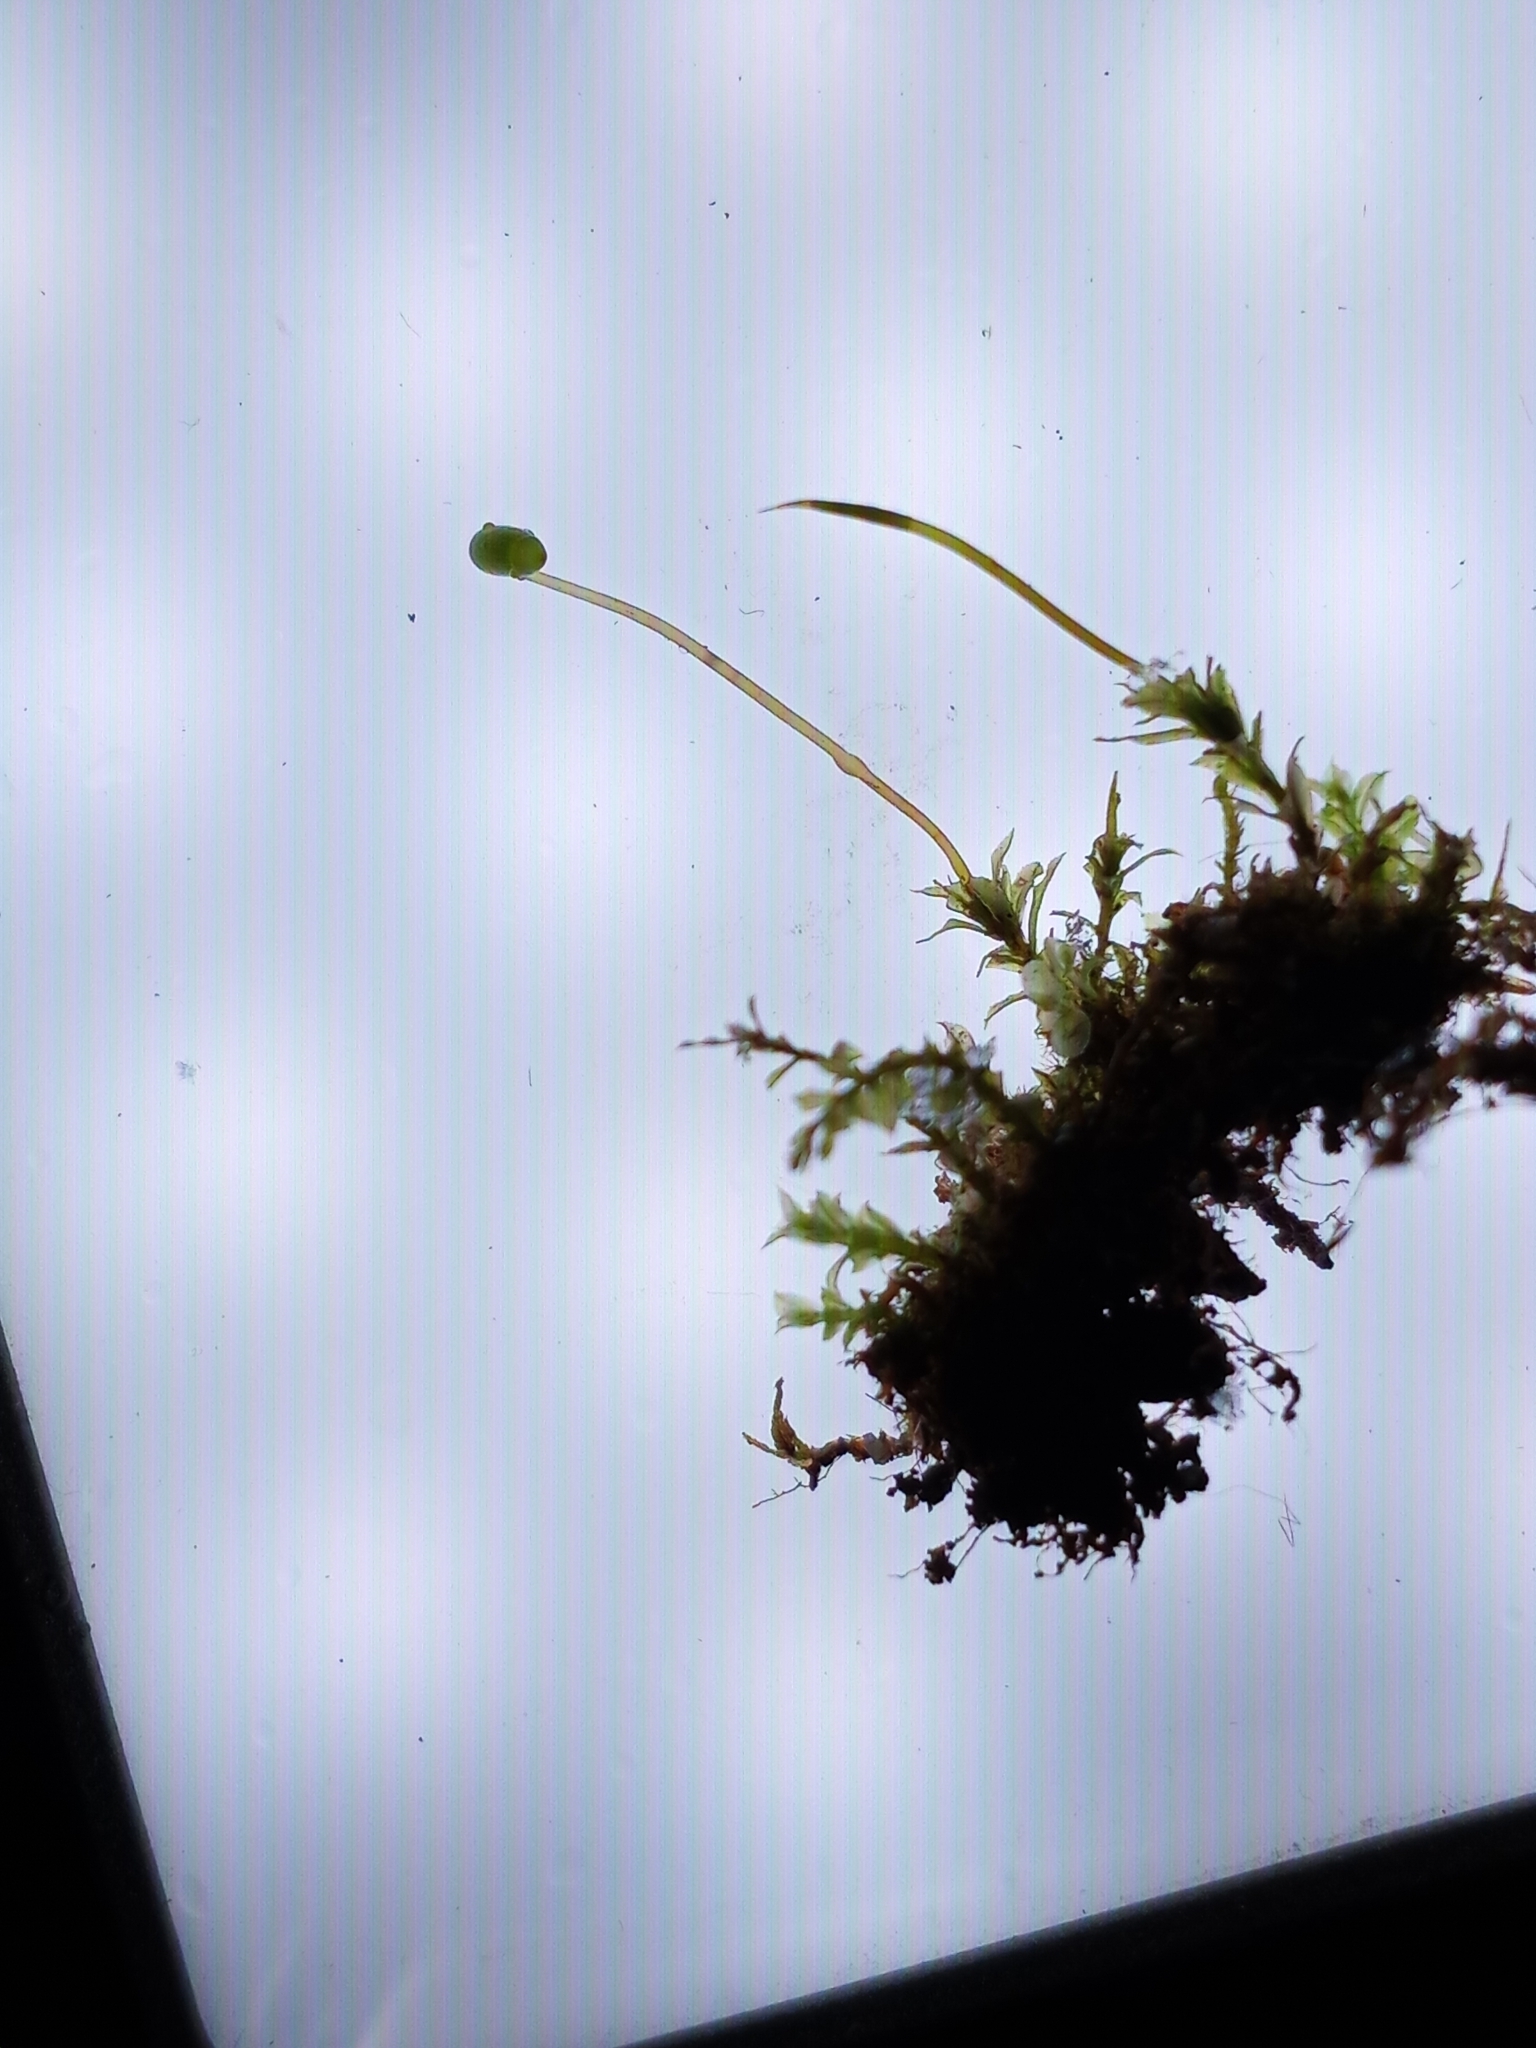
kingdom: Plantae
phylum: Bryophyta
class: Bryopsida
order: Bryales
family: Mniaceae
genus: Plagiomnium
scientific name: Plagiomnium cuspidatum
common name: Woodsy leafy moss
